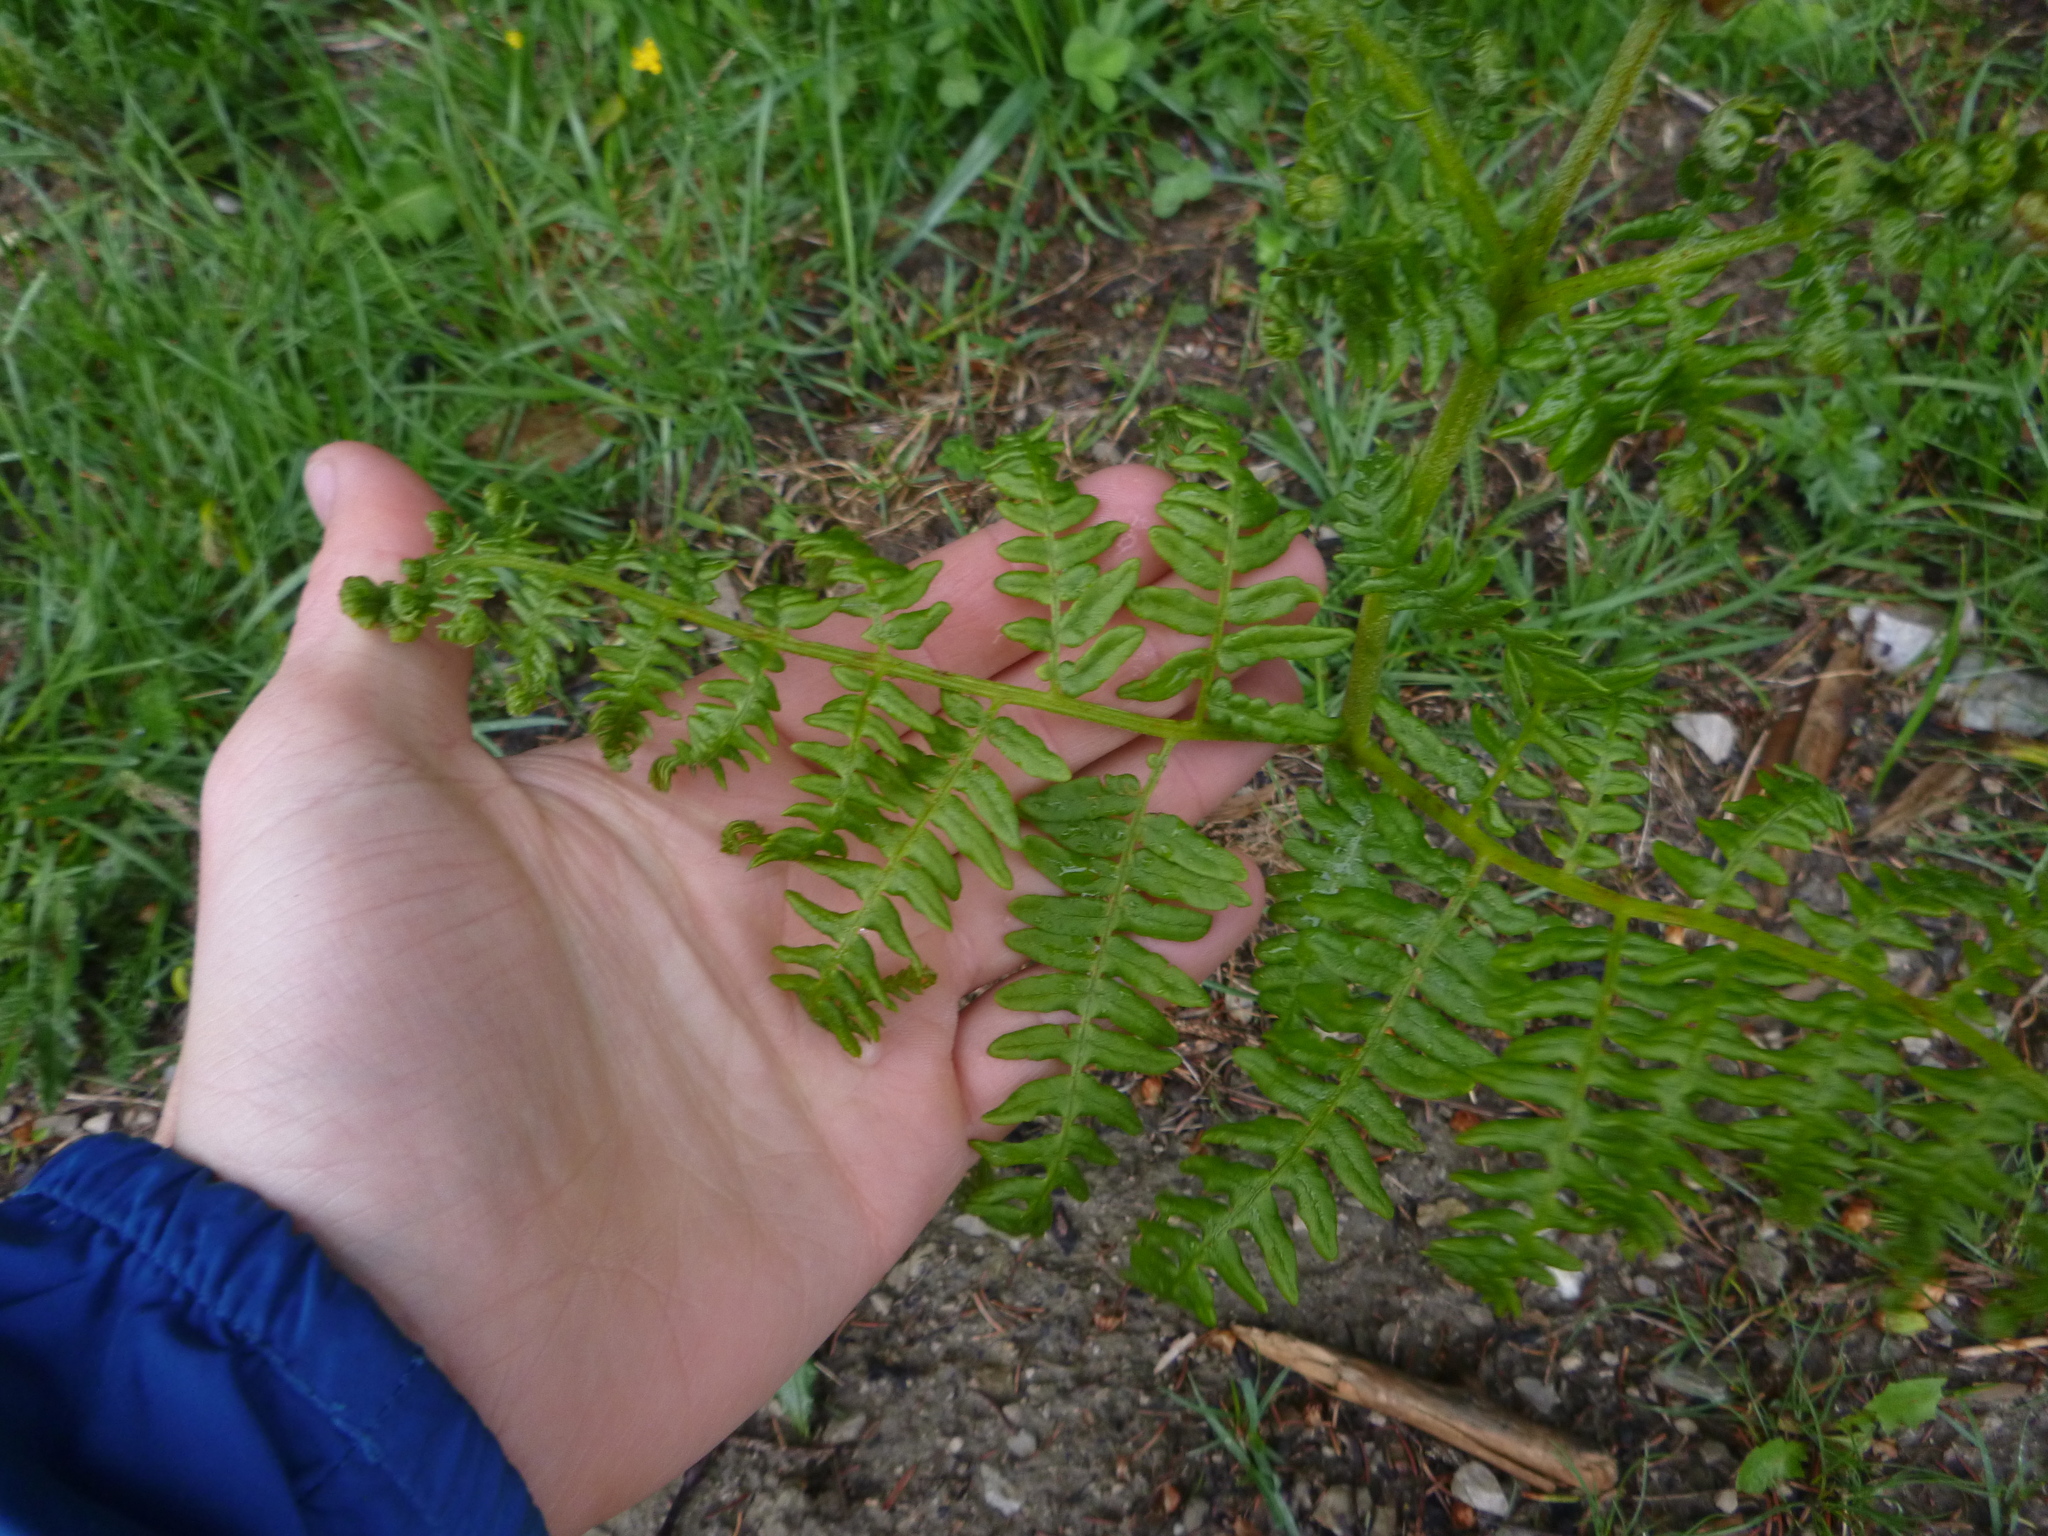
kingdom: Plantae
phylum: Tracheophyta
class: Polypodiopsida
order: Polypodiales
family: Dennstaedtiaceae
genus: Pteridium
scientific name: Pteridium aquilinum
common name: Bracken
